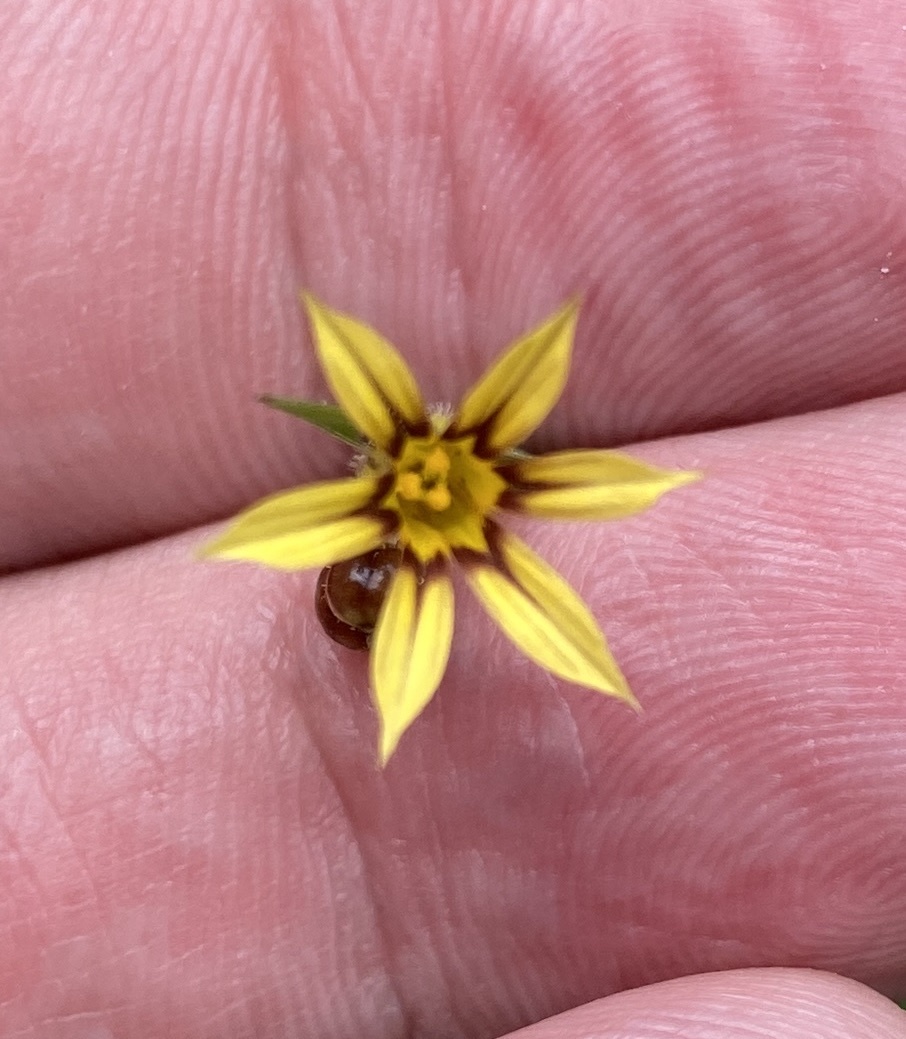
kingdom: Plantae
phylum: Tracheophyta
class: Liliopsida
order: Asparagales
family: Iridaceae
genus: Sisyrinchium
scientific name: Sisyrinchium micranthum
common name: Bermuda pigroot
